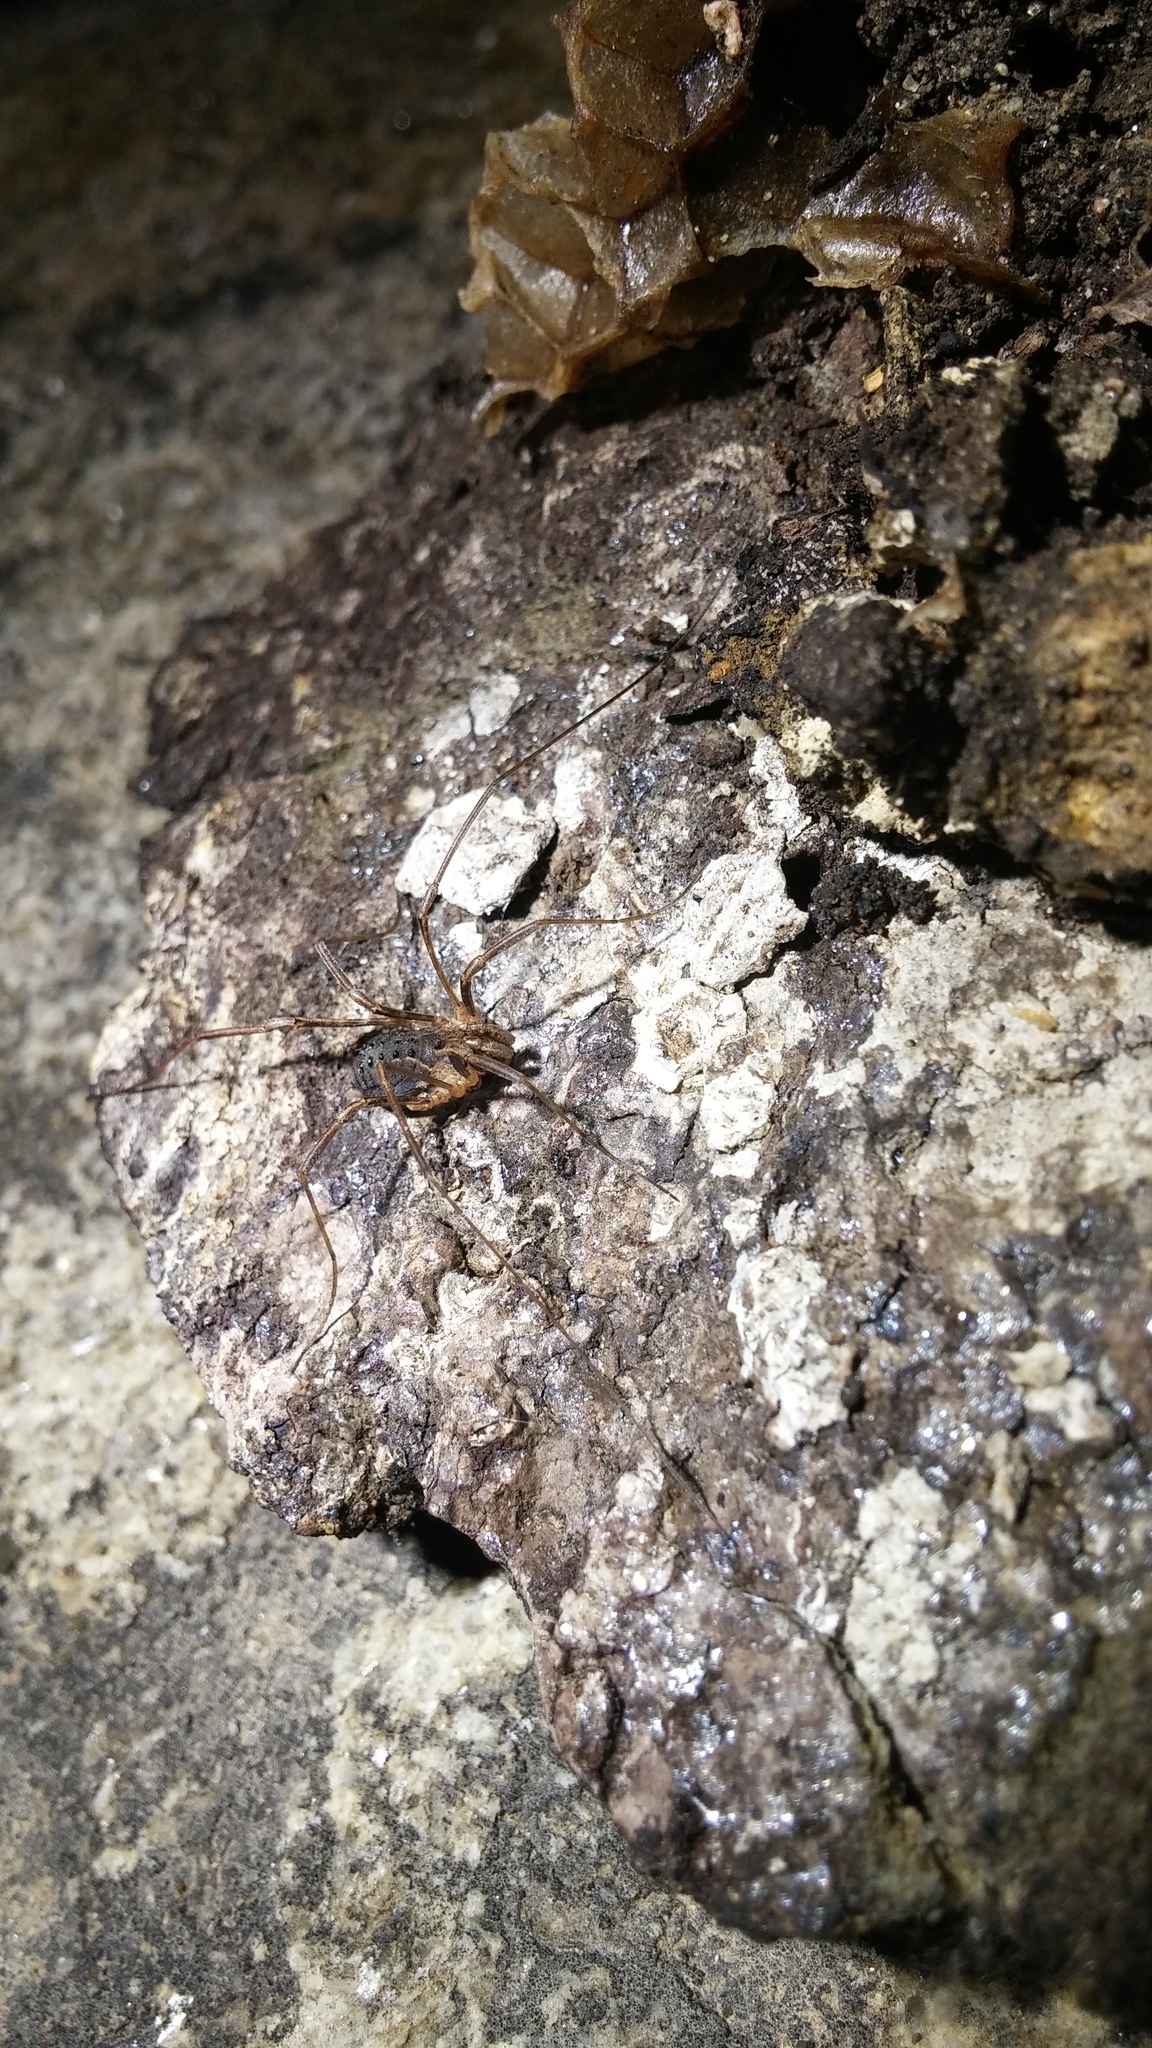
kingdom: Animalia
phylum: Arthropoda
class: Arachnida
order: Opiliones
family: Protolophidae
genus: Protolophus
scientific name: Protolophus singularis
